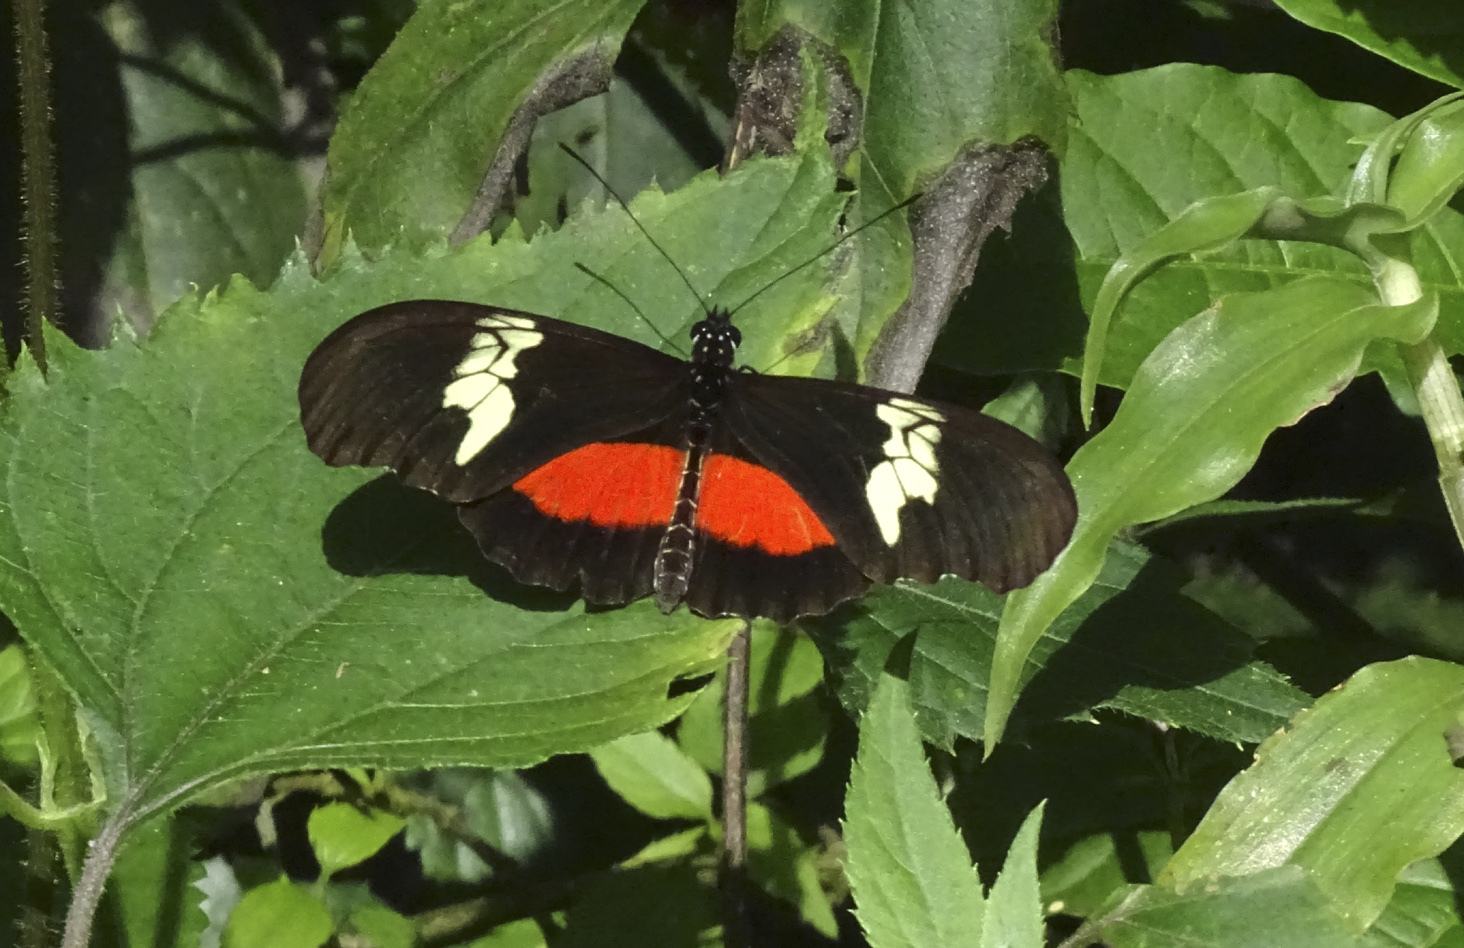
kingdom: Animalia
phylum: Arthropoda
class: Insecta
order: Lepidoptera
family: Nymphalidae
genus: Heliconius
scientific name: Heliconius hortense
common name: Mexican longwing
